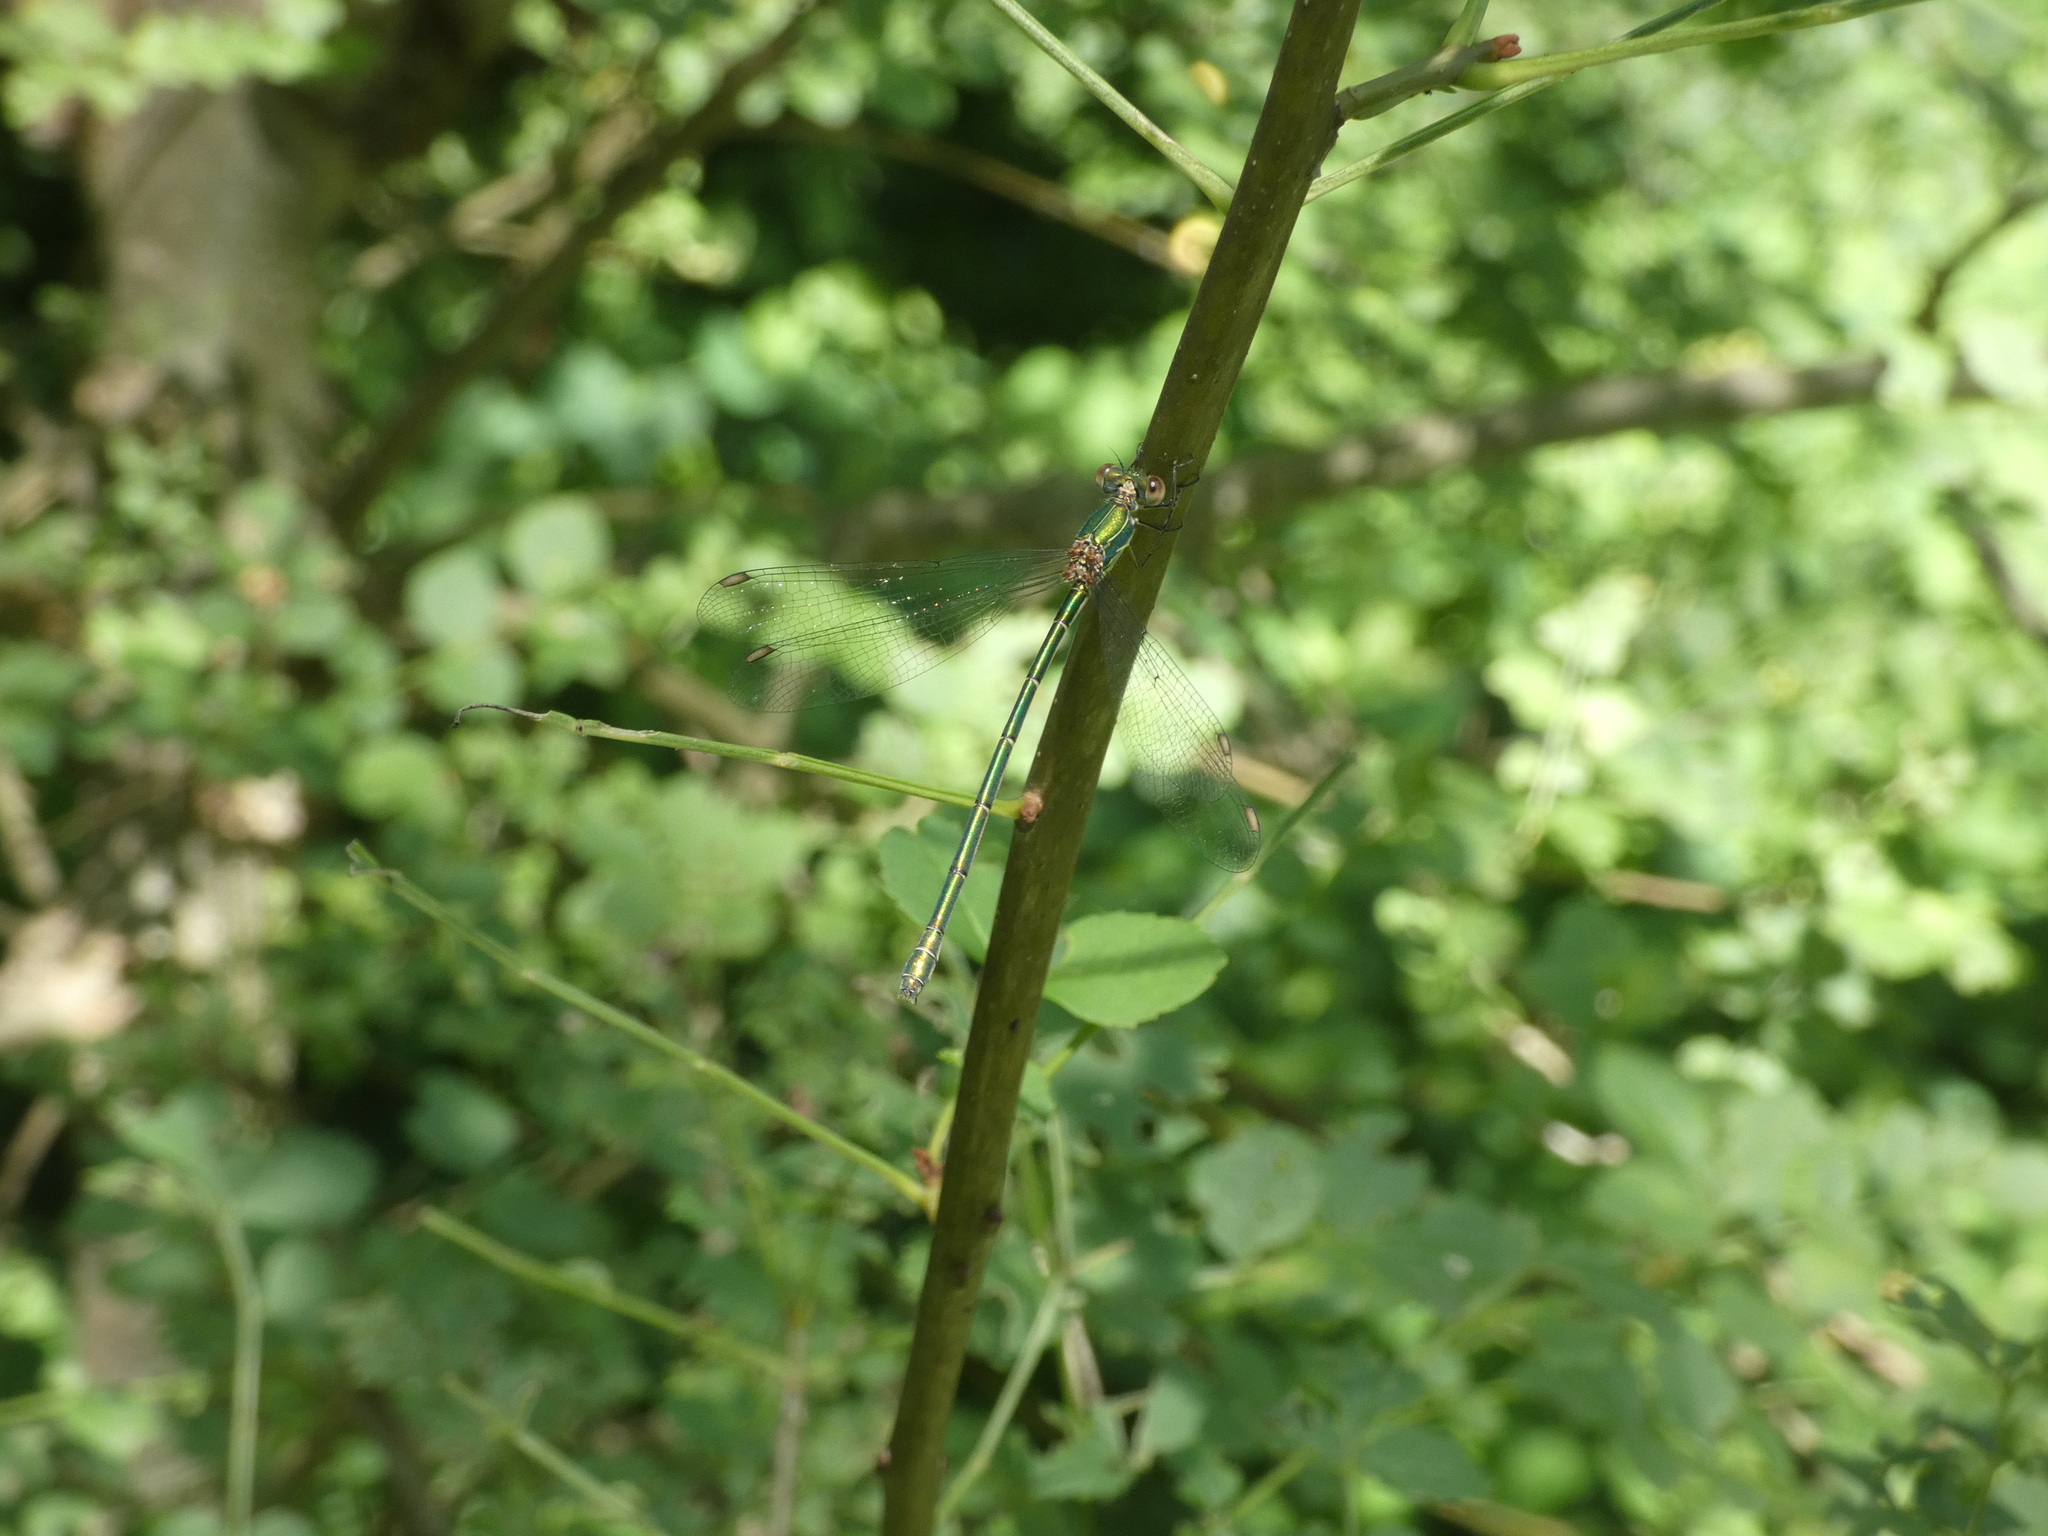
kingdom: Animalia
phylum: Arthropoda
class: Insecta
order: Odonata
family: Lestidae
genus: Chalcolestes
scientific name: Chalcolestes viridis
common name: Green emerald damselfly
